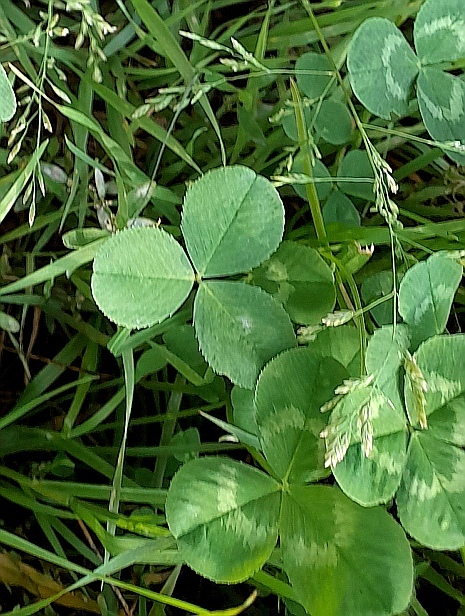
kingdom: Plantae
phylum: Tracheophyta
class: Magnoliopsida
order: Fabales
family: Fabaceae
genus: Trifolium
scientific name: Trifolium repens
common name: White clover
